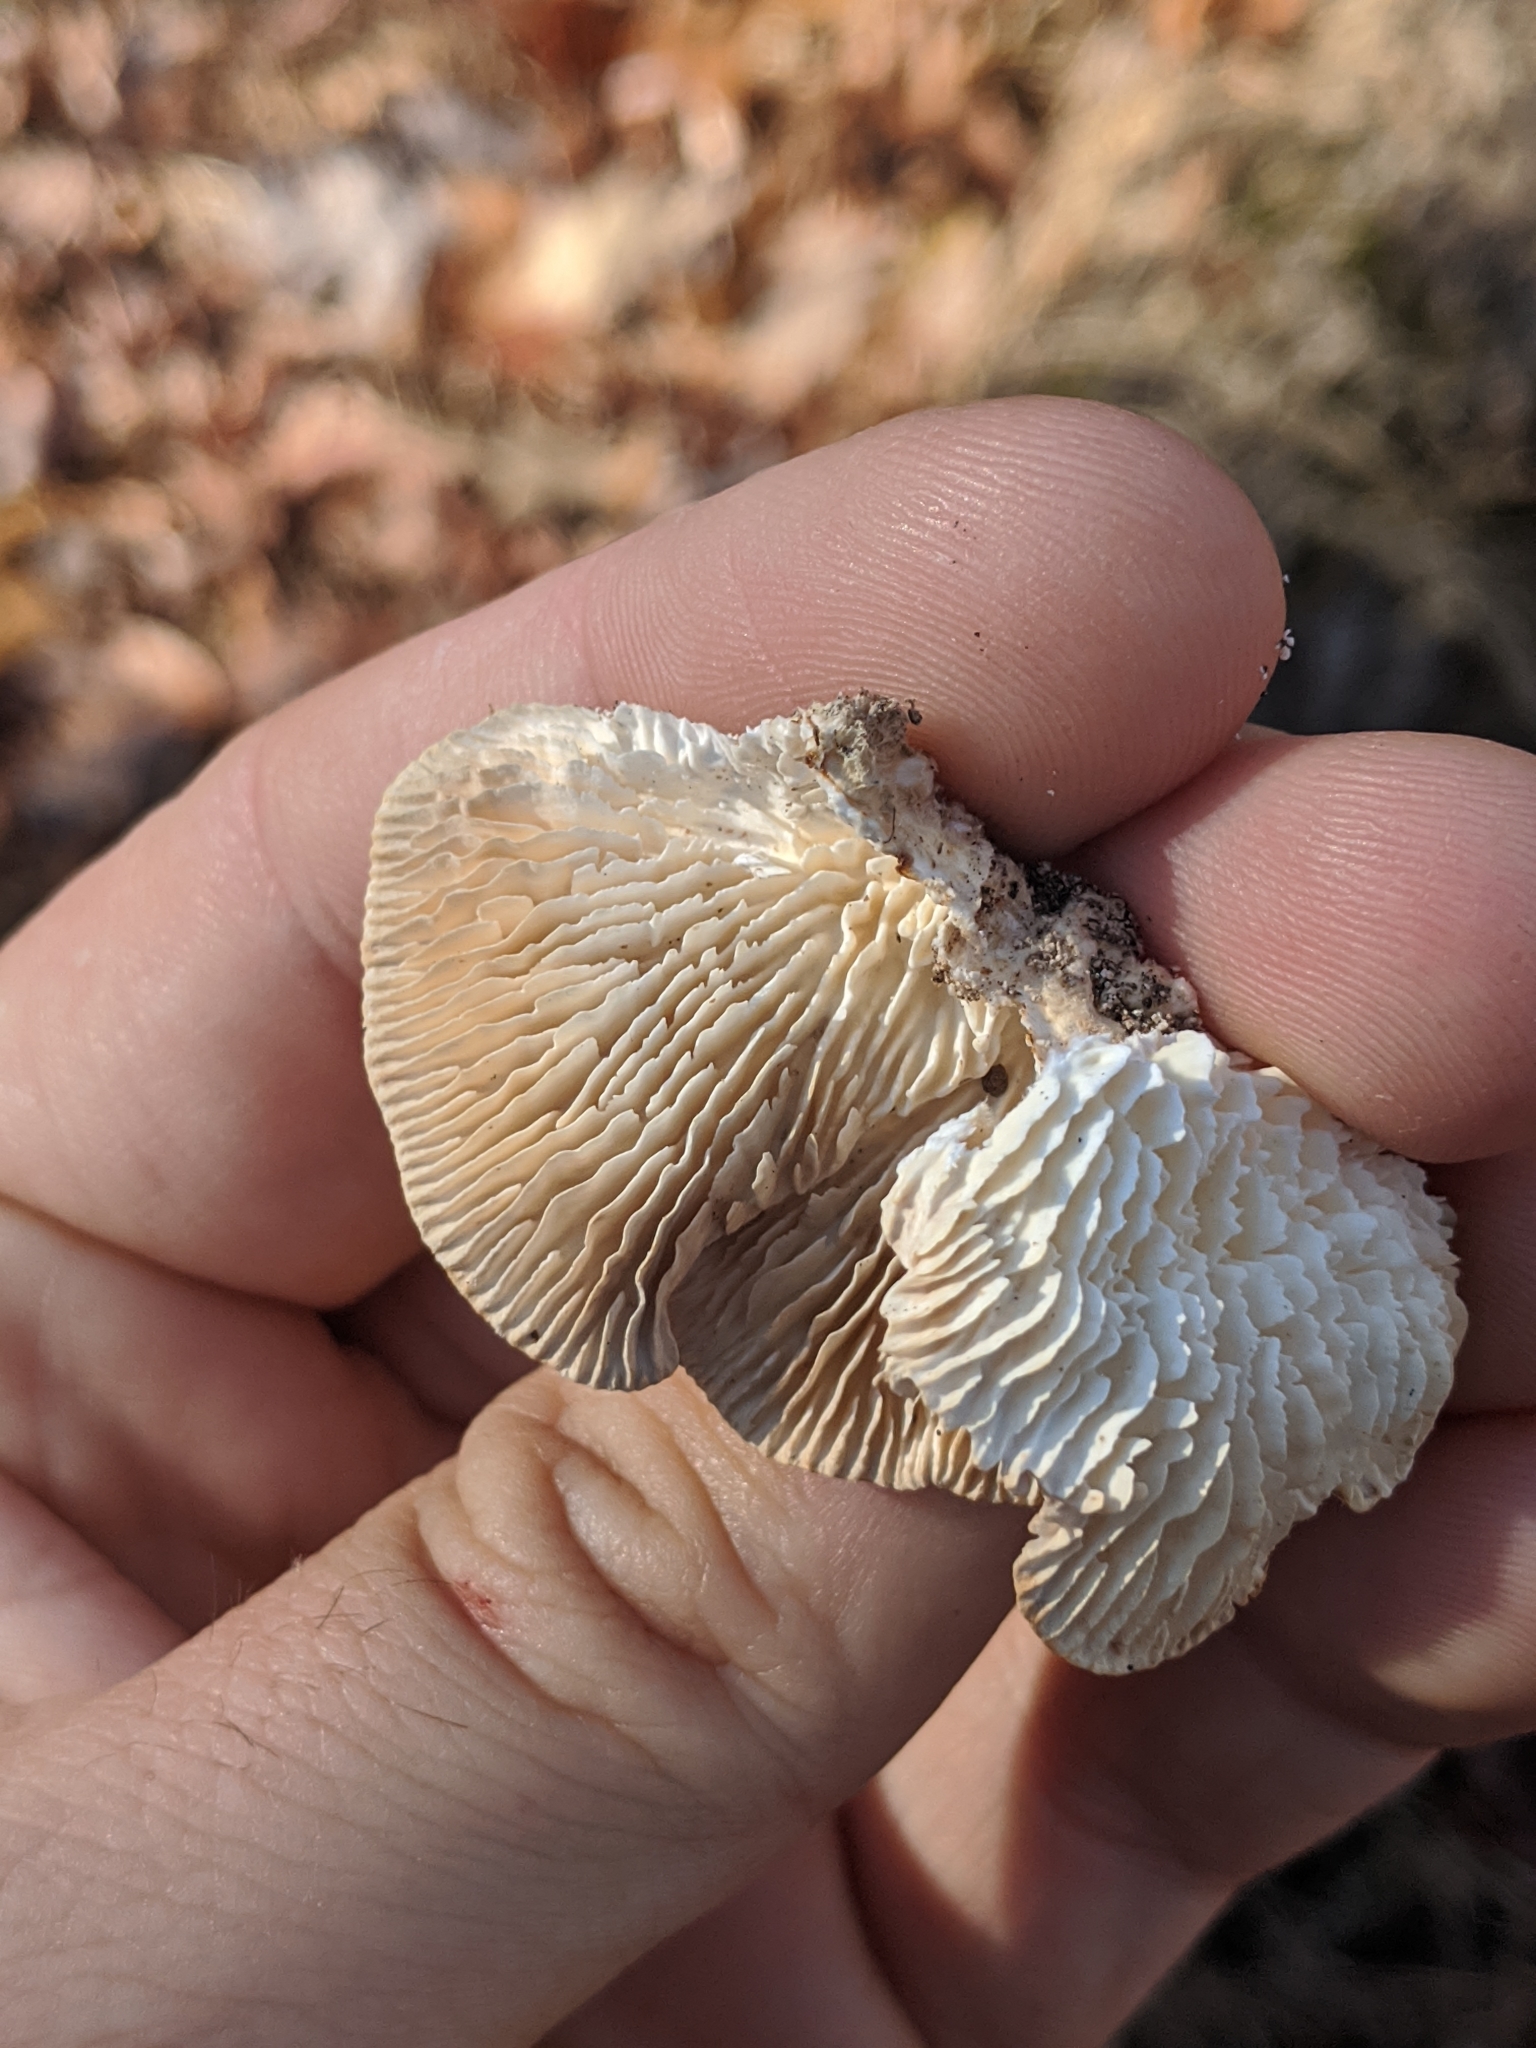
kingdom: Fungi
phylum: Basidiomycota
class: Agaricomycetes
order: Polyporales
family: Polyporaceae
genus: Lenzites
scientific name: Lenzites betulinus
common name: Birch mazegill
